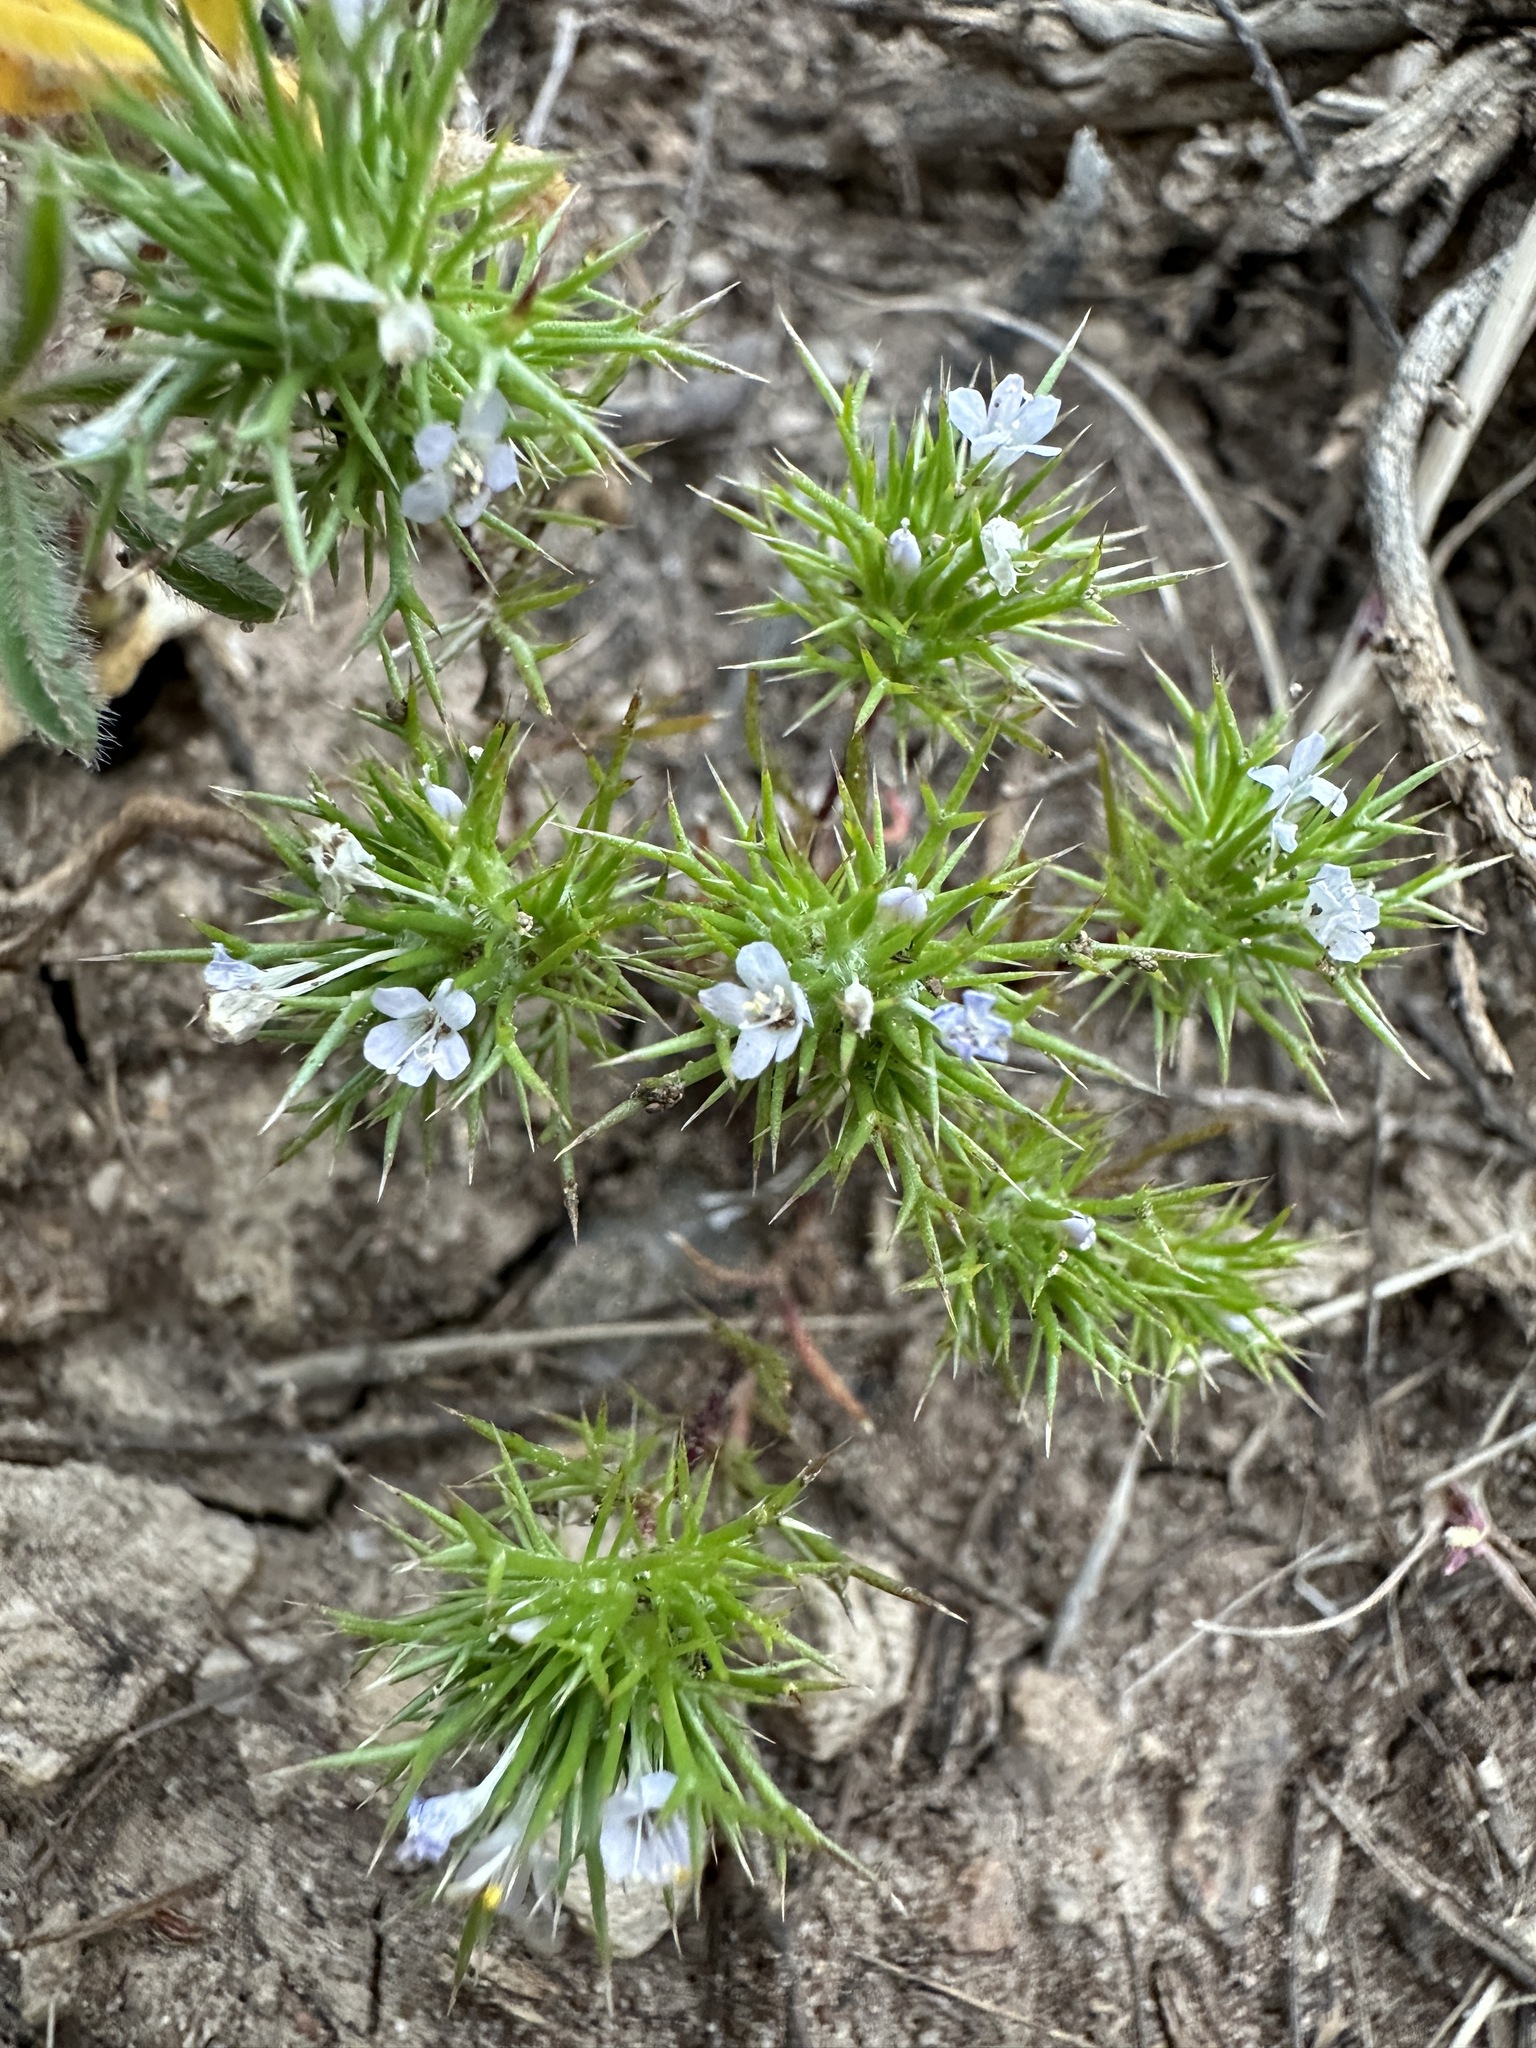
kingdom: Plantae
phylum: Tracheophyta
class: Magnoliopsida
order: Ericales
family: Polemoniaceae
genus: Navarretia
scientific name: Navarretia intertexta
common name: Needle-leaved navarretia
